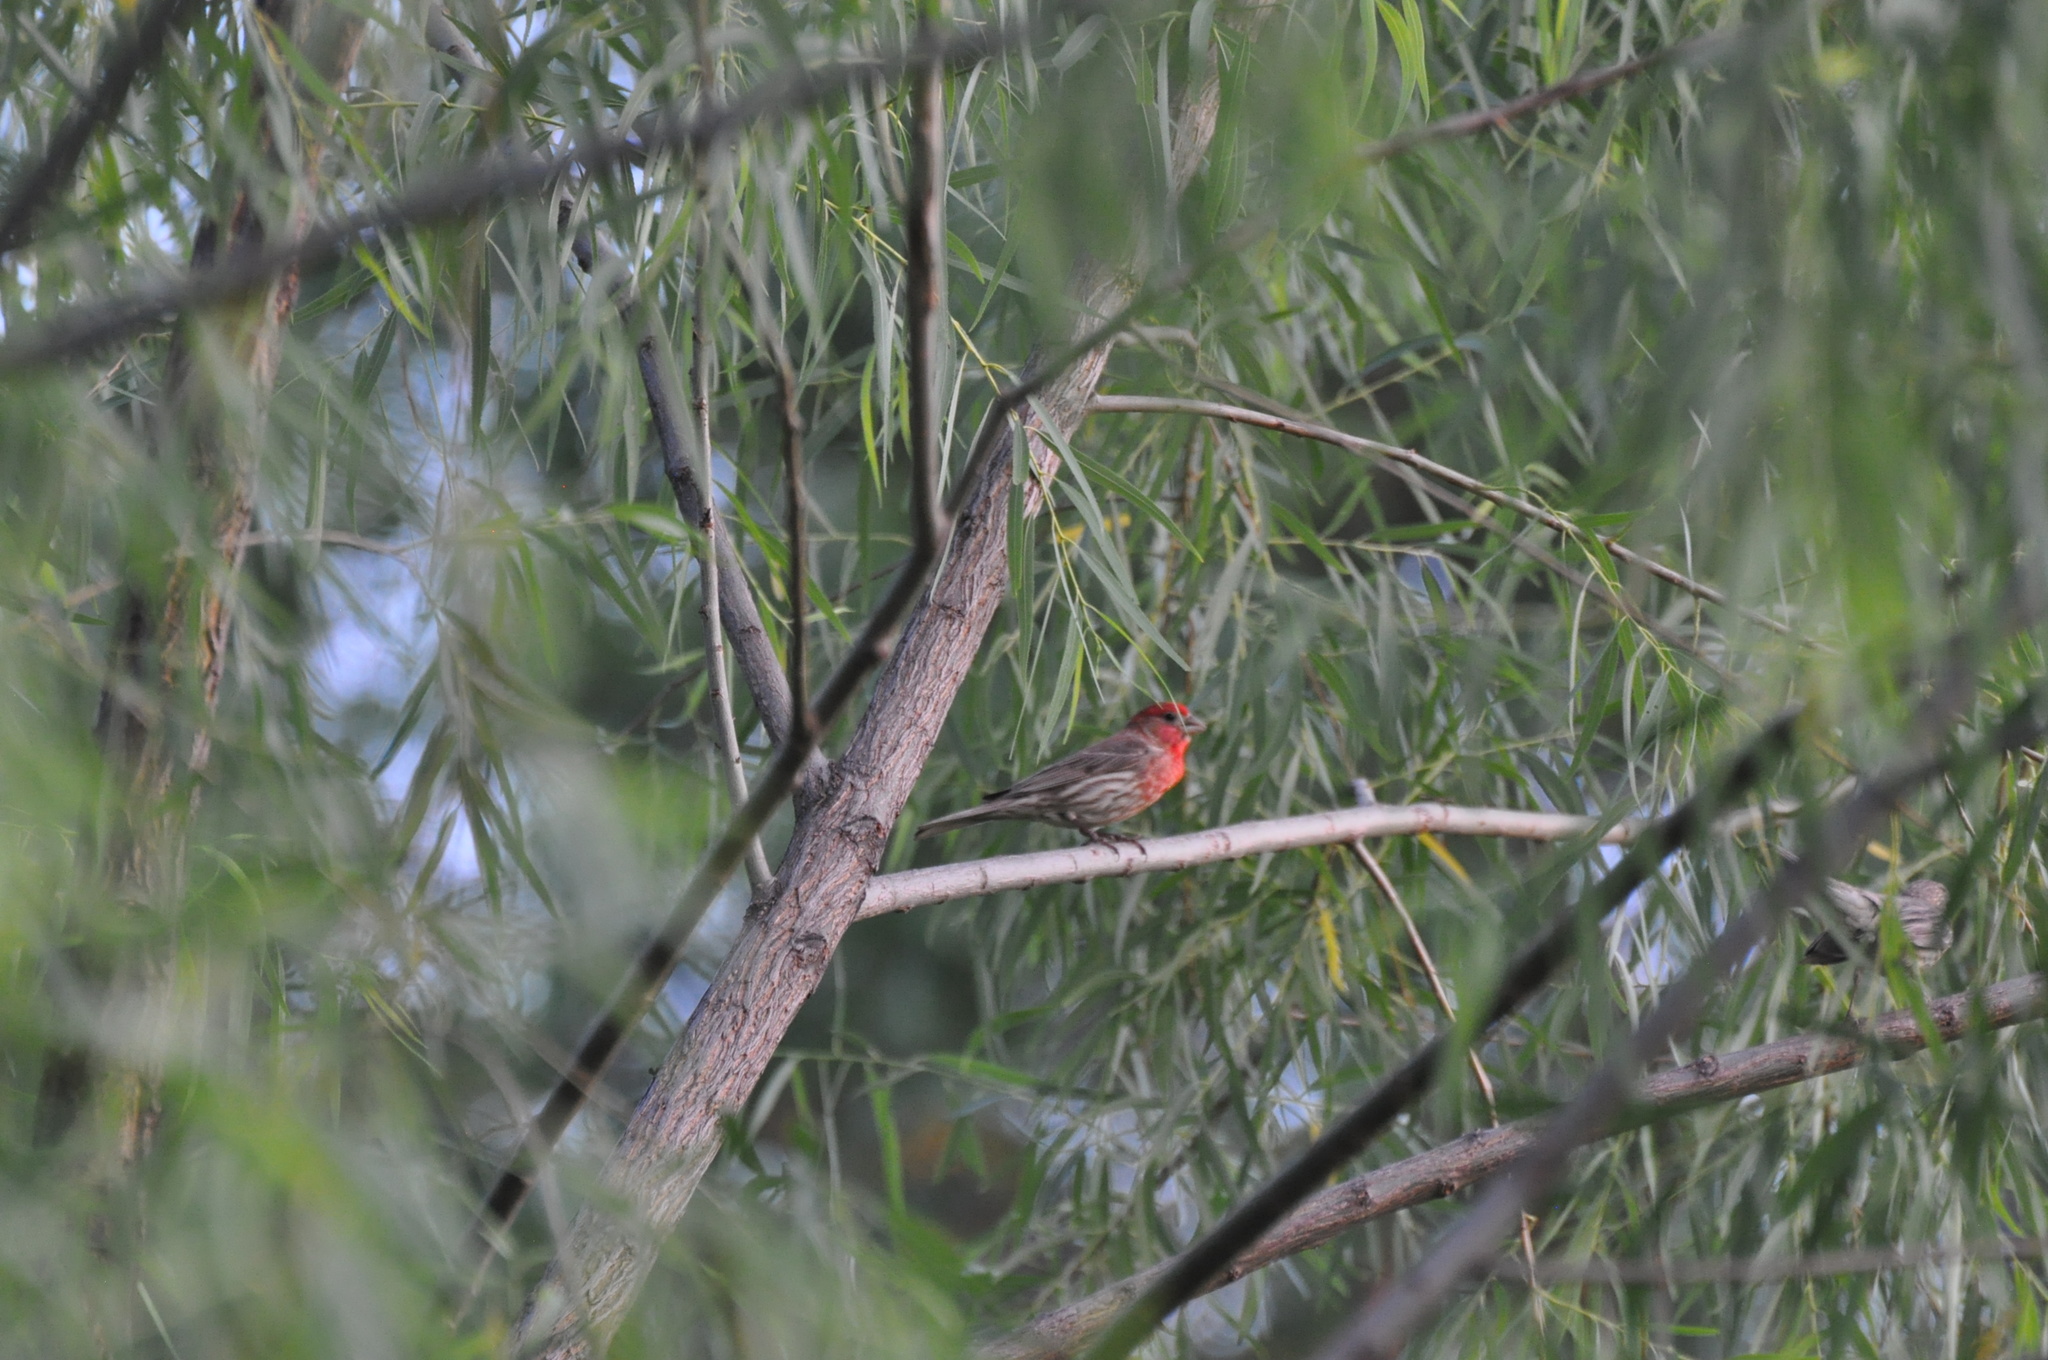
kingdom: Animalia
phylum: Chordata
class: Aves
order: Passeriformes
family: Fringillidae
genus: Haemorhous
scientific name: Haemorhous mexicanus
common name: House finch
